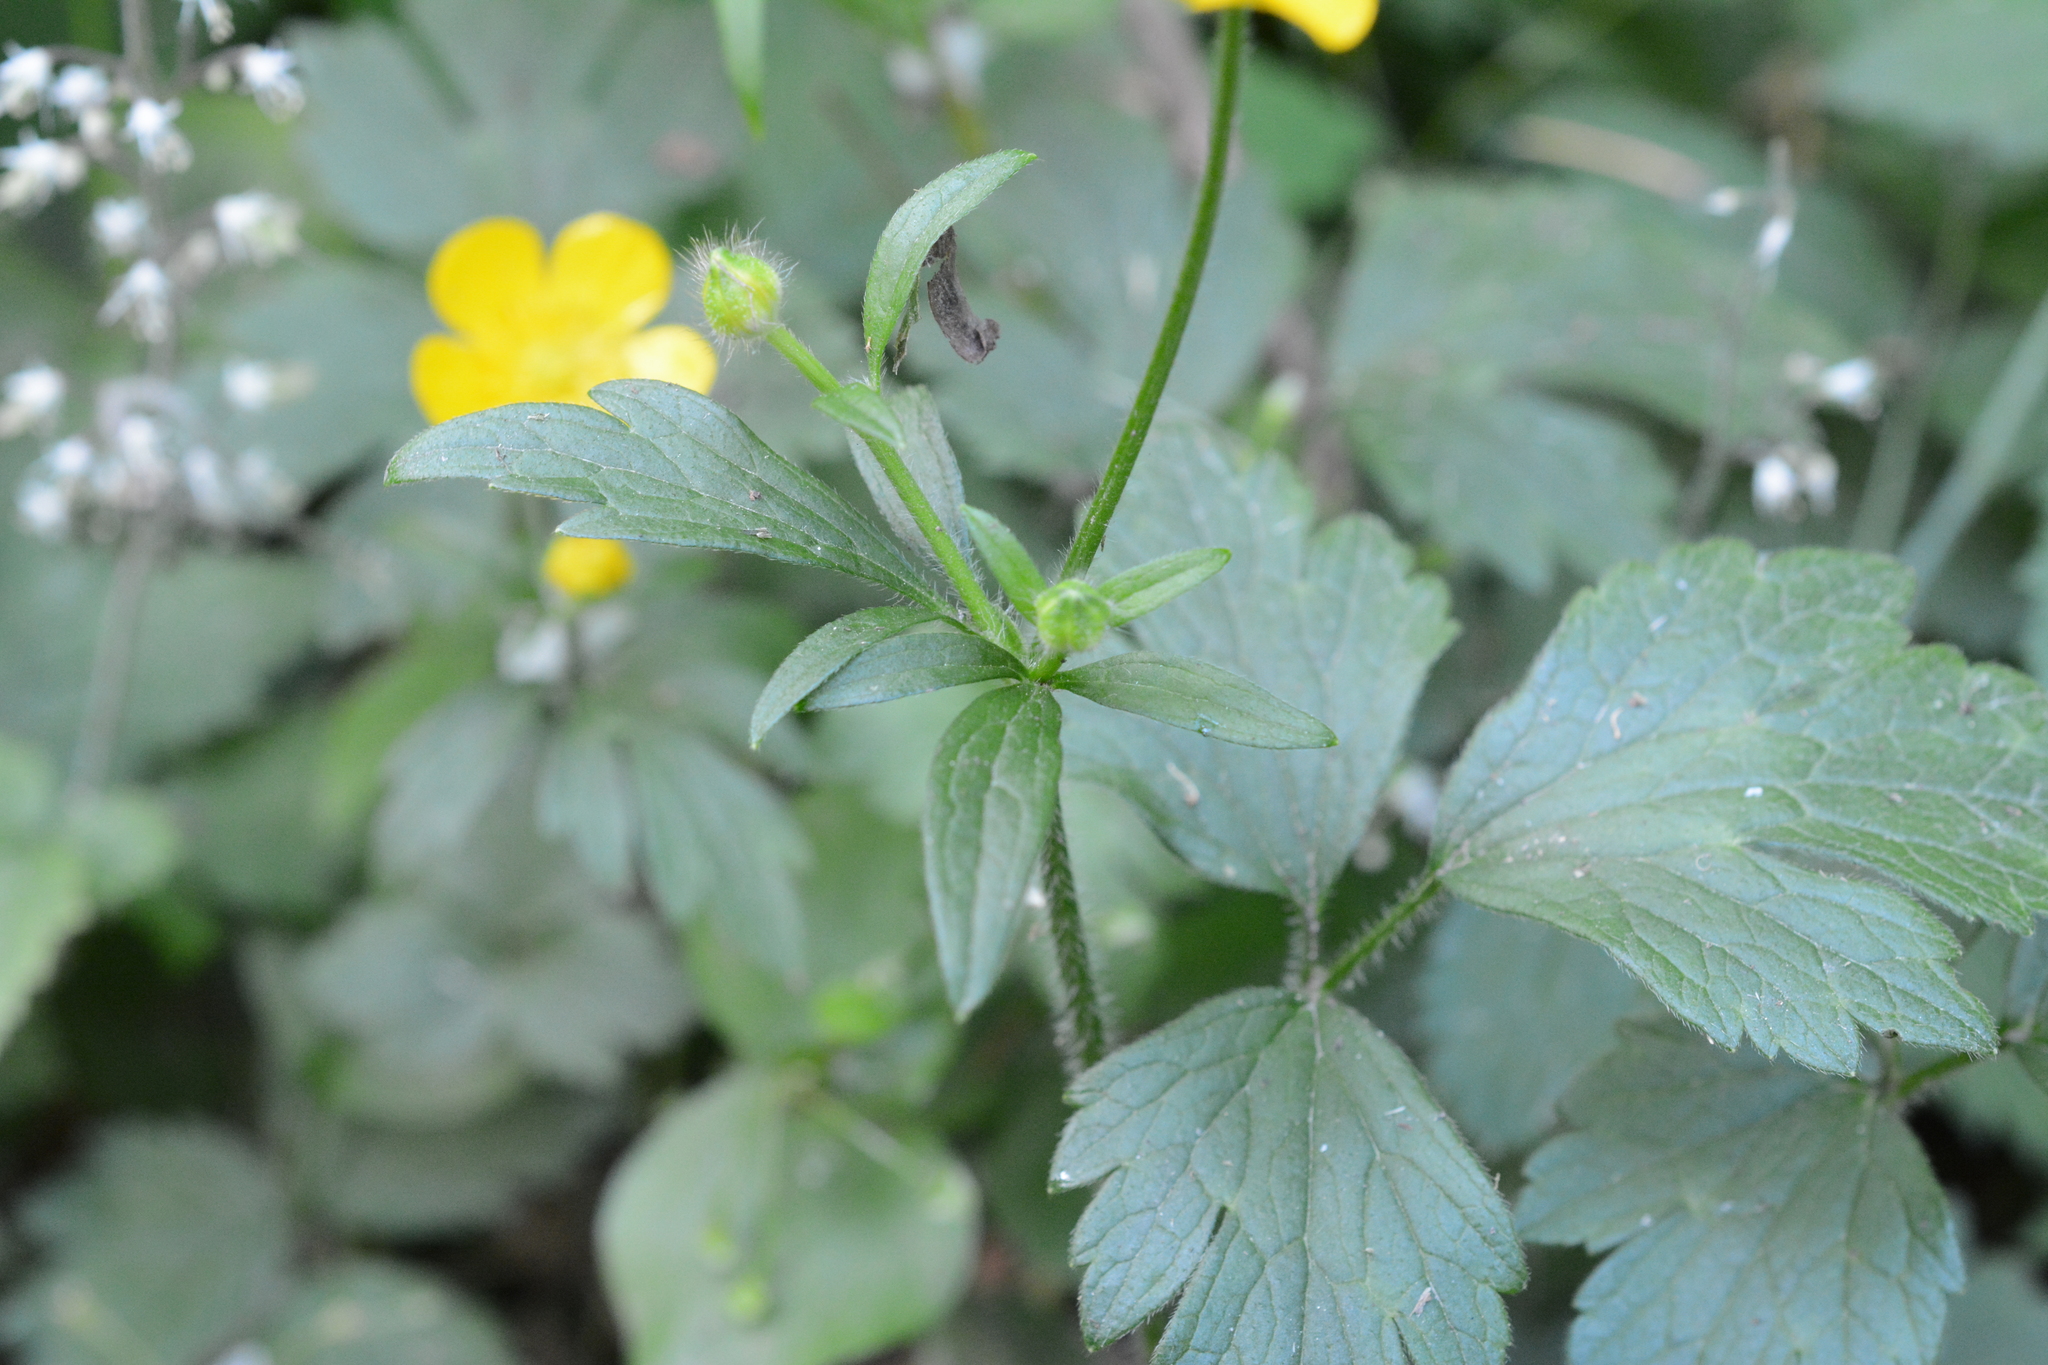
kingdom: Plantae
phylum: Tracheophyta
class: Magnoliopsida
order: Ranunculales
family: Ranunculaceae
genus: Ranunculus
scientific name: Ranunculus occidentalis
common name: Western buttercup
